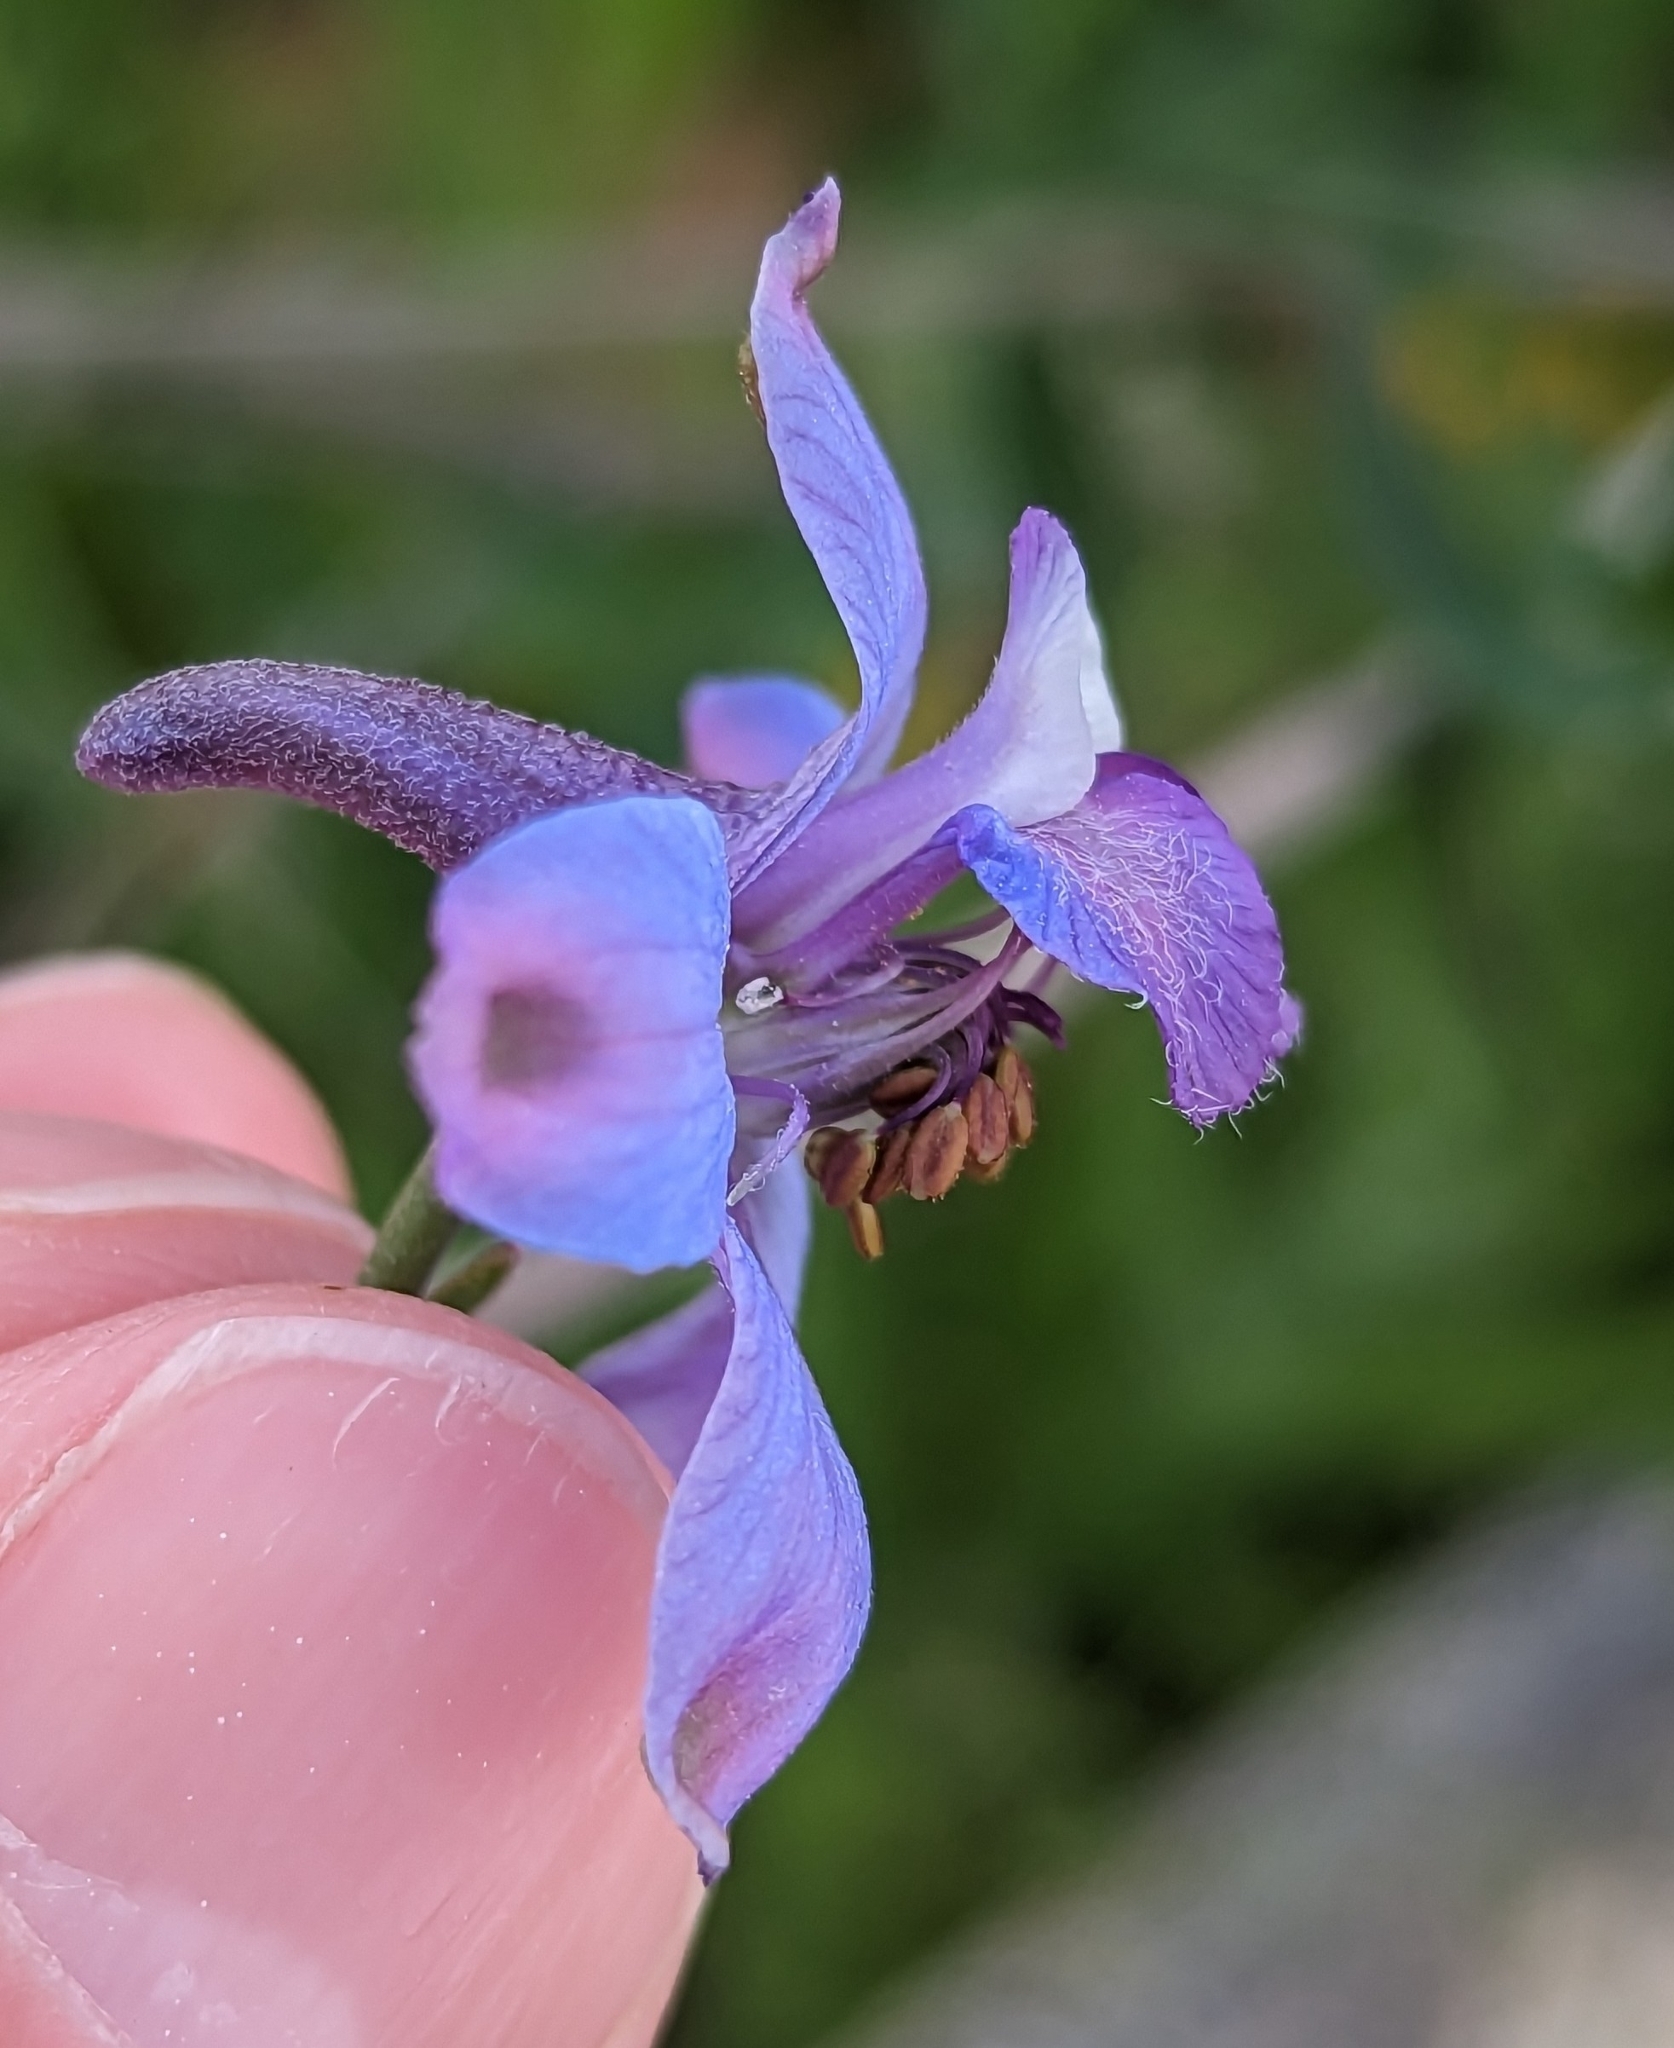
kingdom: Plantae
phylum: Tracheophyta
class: Magnoliopsida
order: Ranunculales
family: Ranunculaceae
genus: Delphinium
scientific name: Delphinium parishii
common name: Apache larkspur
